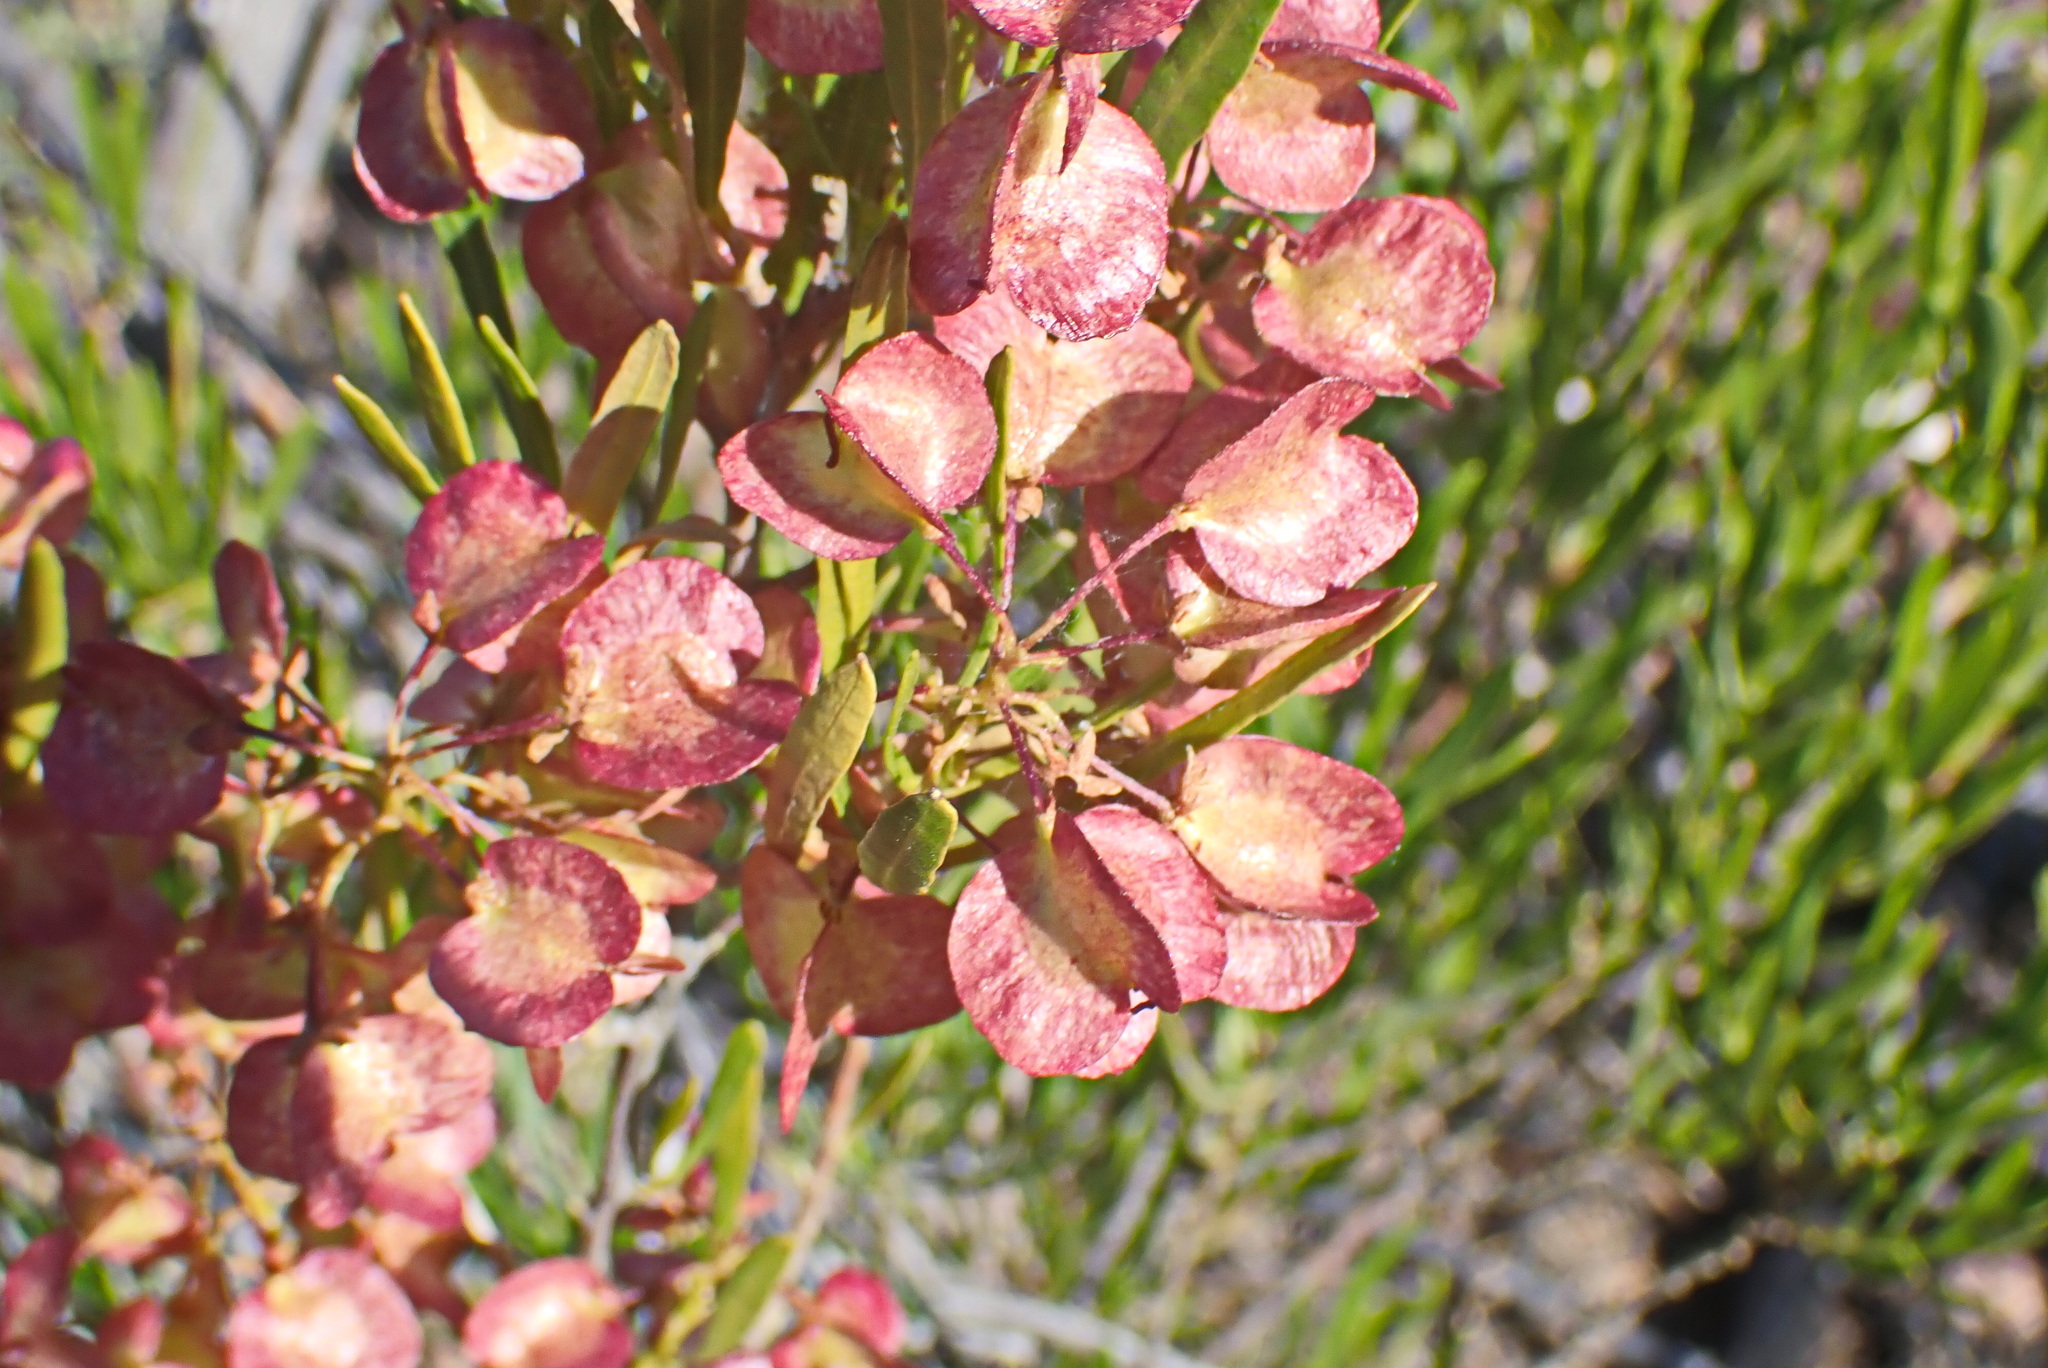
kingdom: Plantae
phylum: Tracheophyta
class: Magnoliopsida
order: Sapindales
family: Sapindaceae
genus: Dodonaea
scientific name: Dodonaea viscosa
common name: Hopbush
